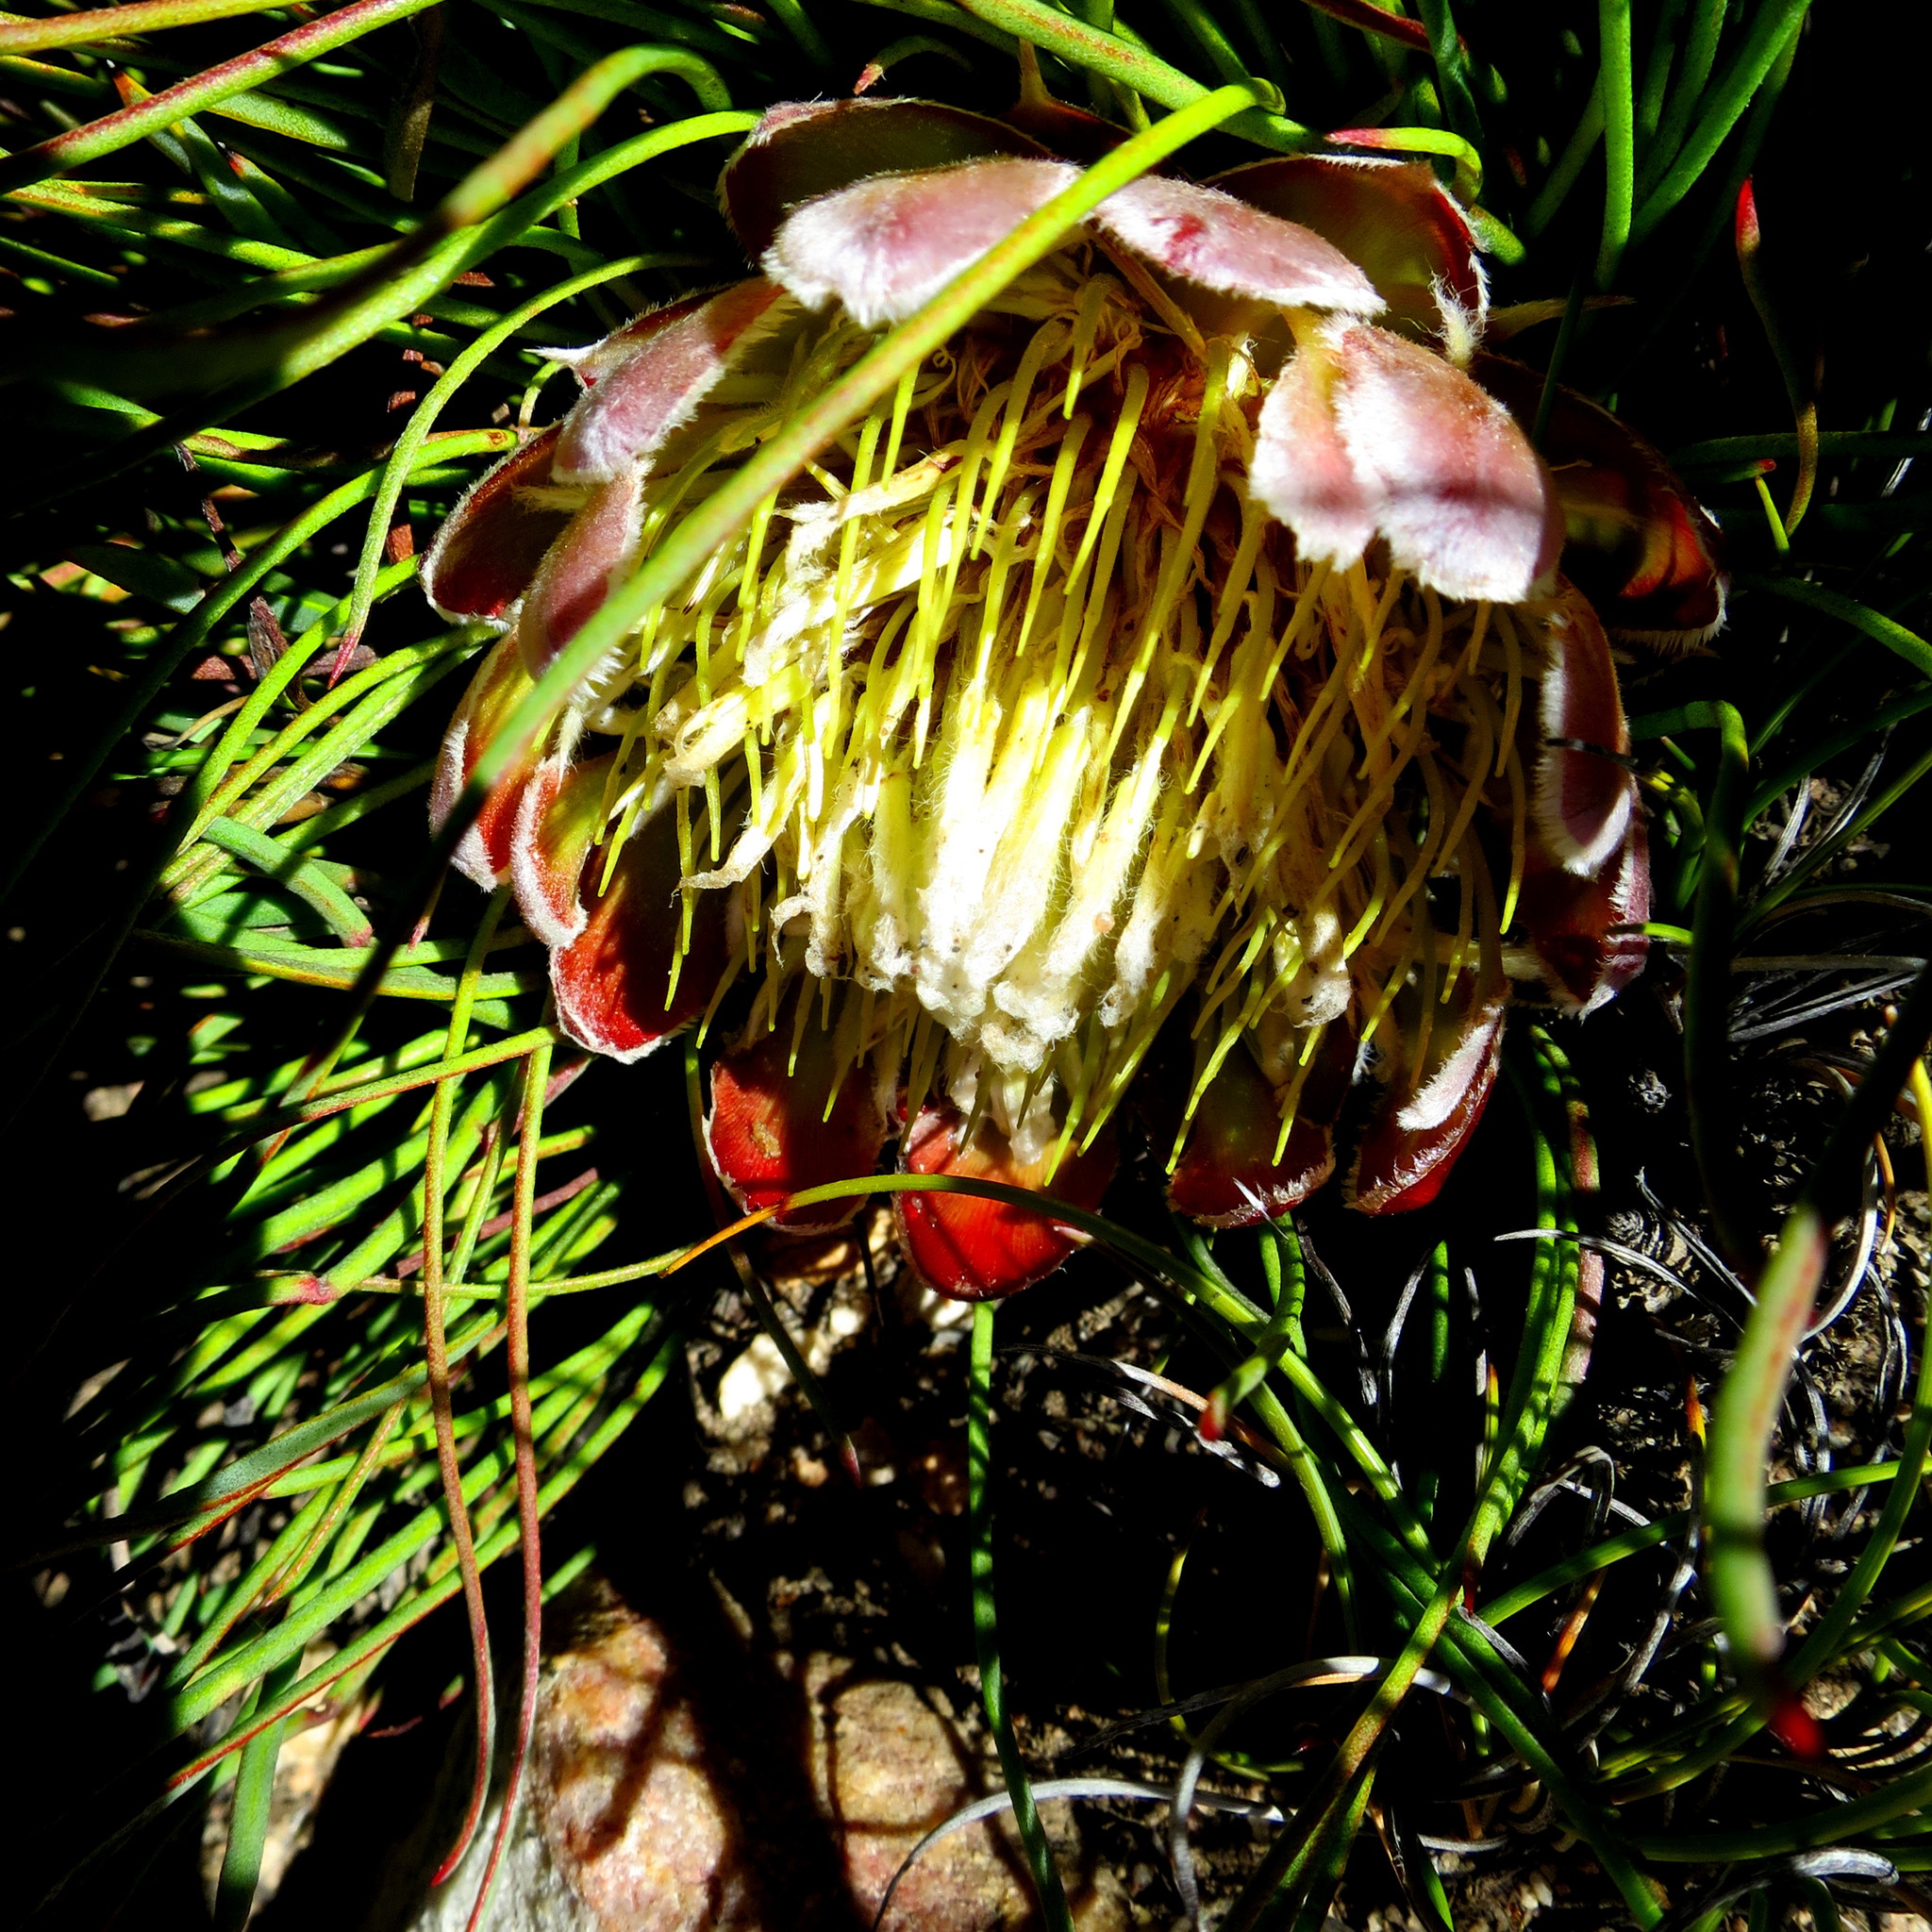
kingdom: Plantae
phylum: Tracheophyta
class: Magnoliopsida
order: Proteales
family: Proteaceae
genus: Protea
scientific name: Protea montana
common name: Swartberg sugarbush
